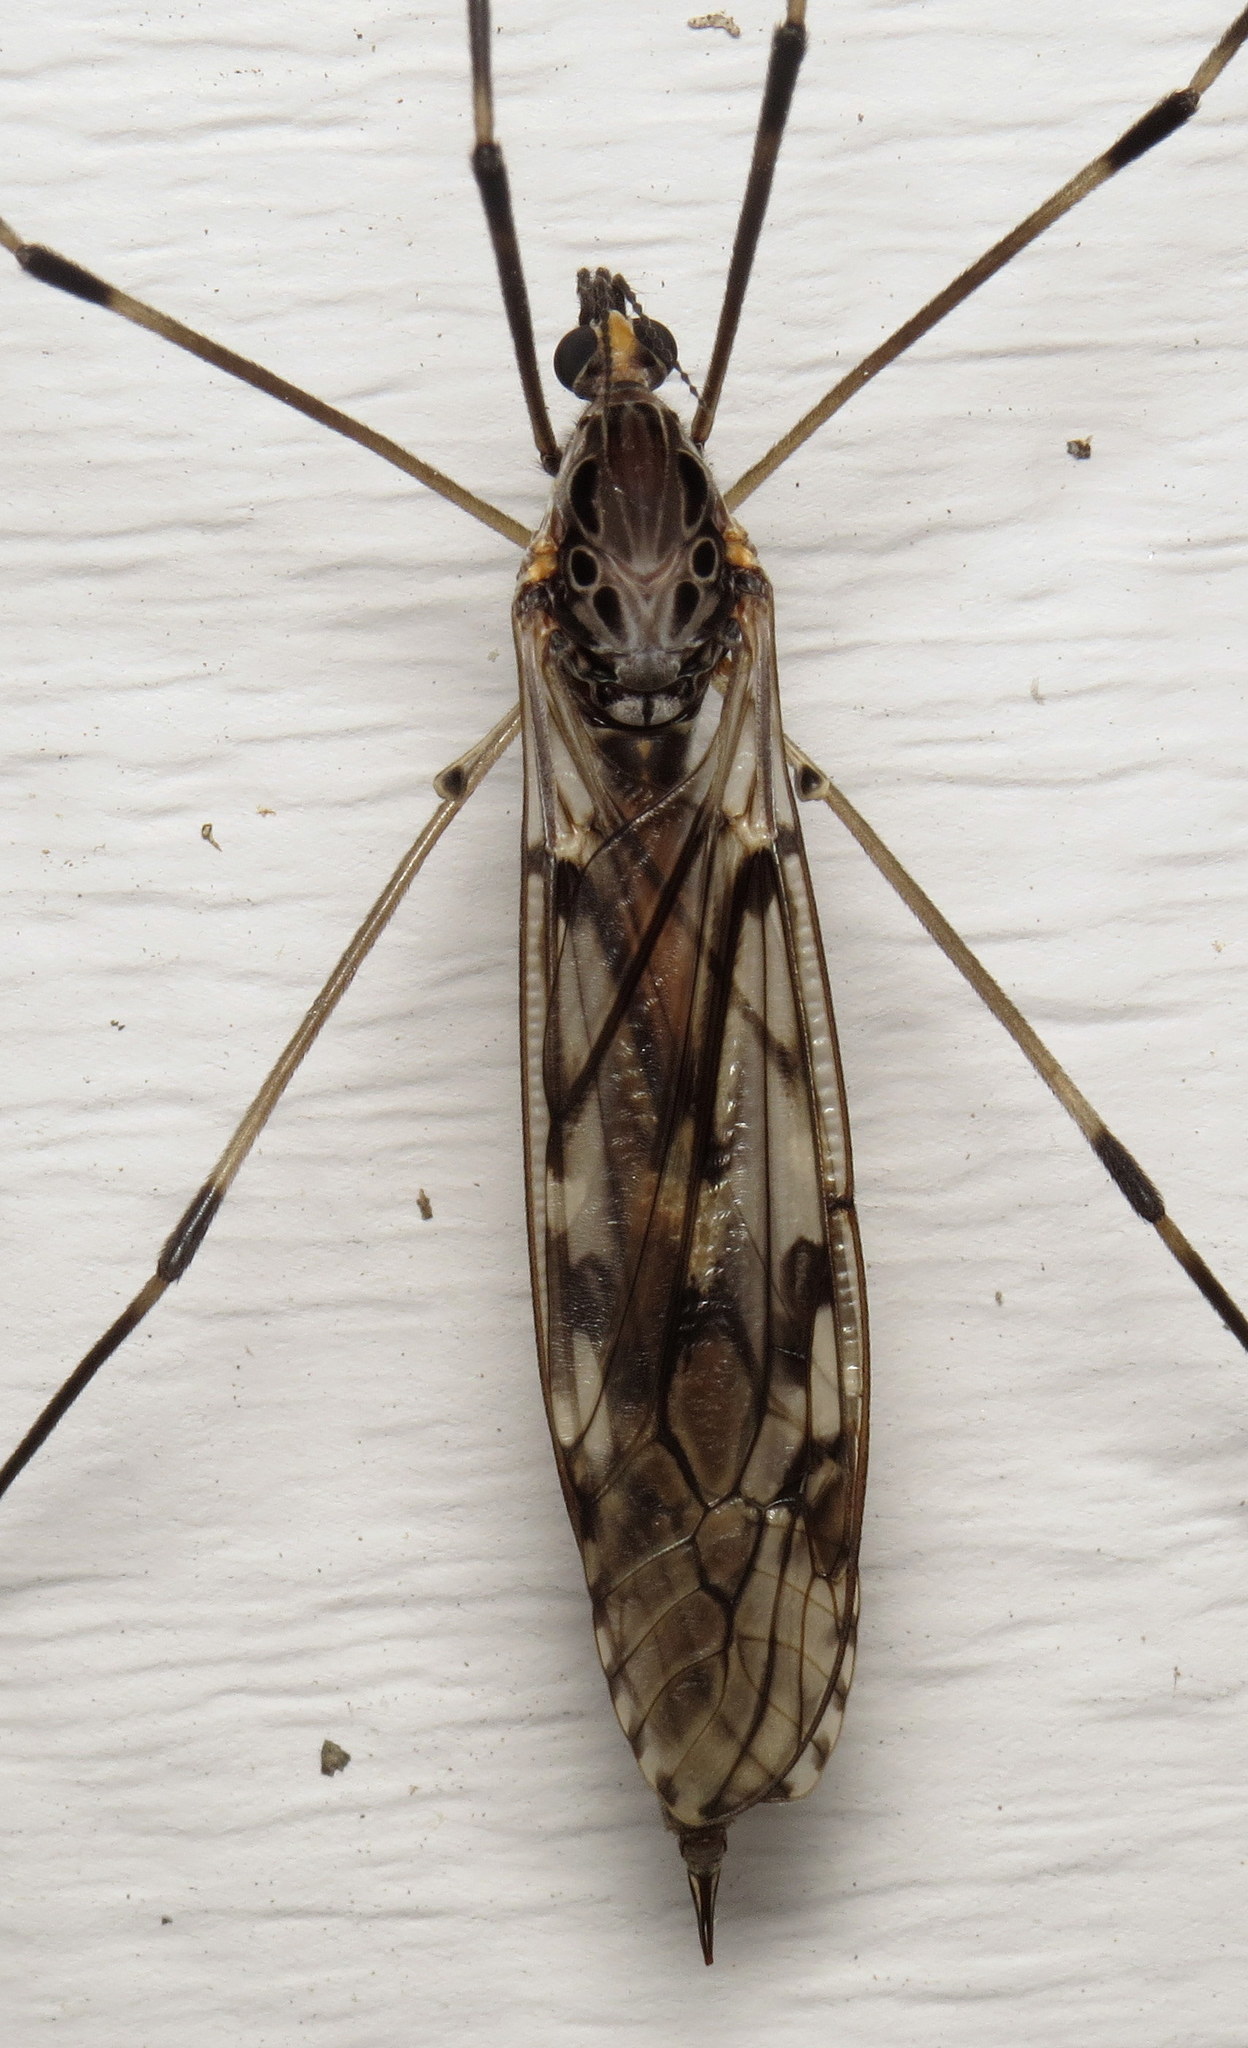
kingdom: Animalia
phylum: Arthropoda
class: Insecta
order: Diptera
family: Tipulidae
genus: Tipula
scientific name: Tipula abdominalis
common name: Giant crane fly
